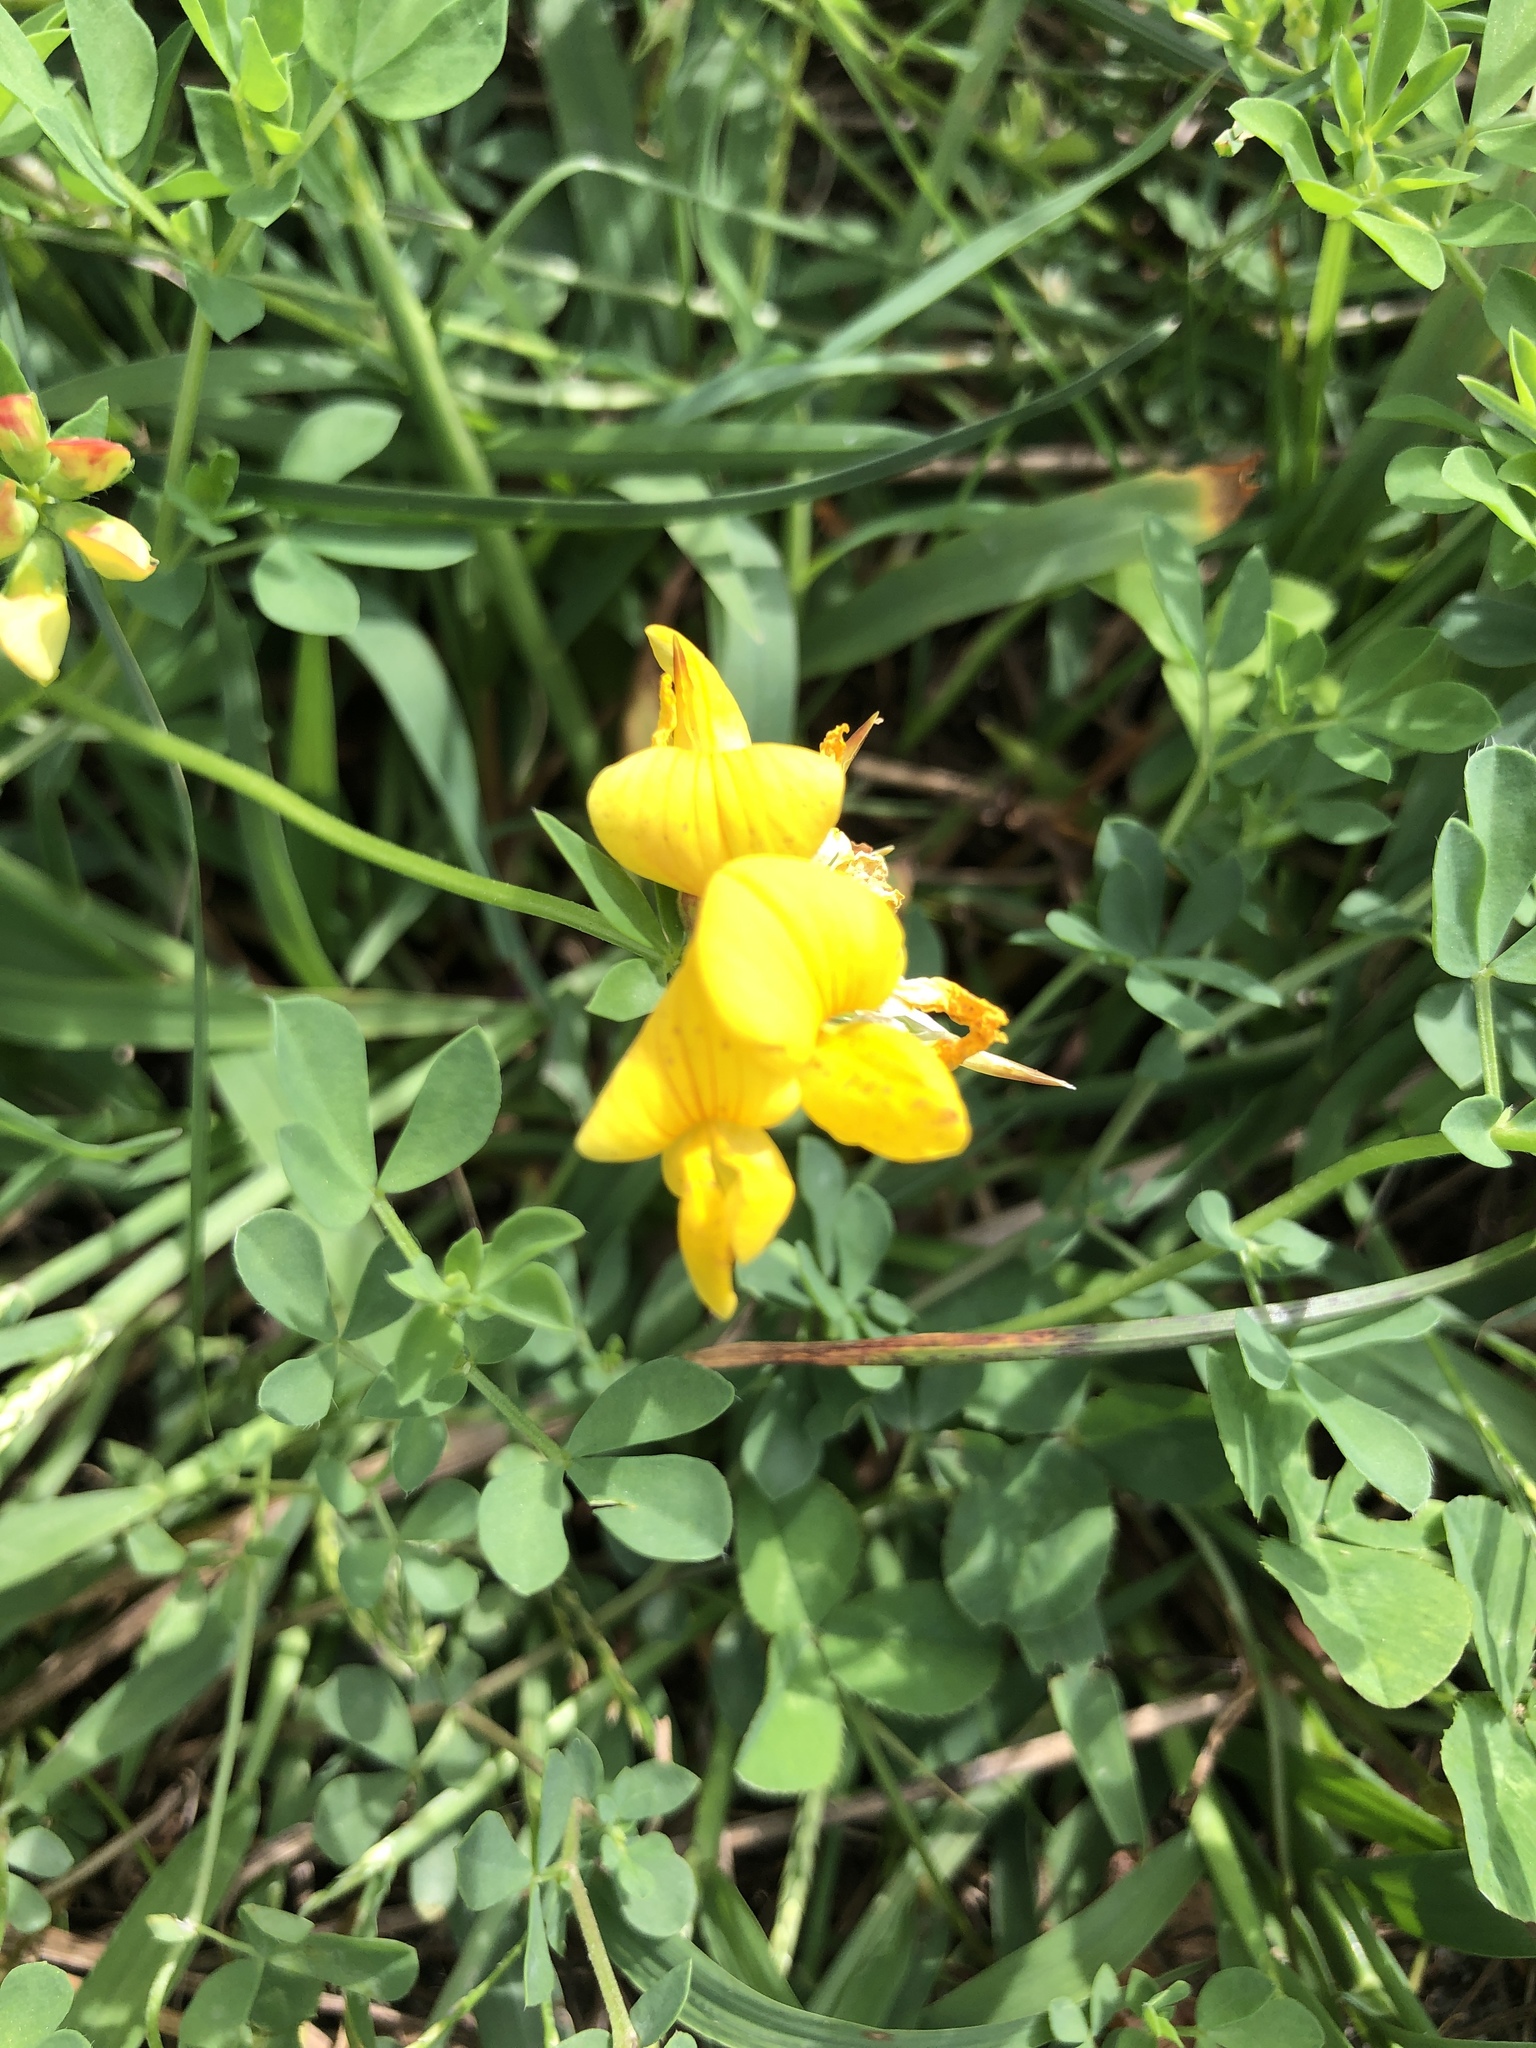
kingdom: Plantae
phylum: Tracheophyta
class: Magnoliopsida
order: Fabales
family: Fabaceae
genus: Lotus
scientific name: Lotus corniculatus
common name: Common bird's-foot-trefoil
